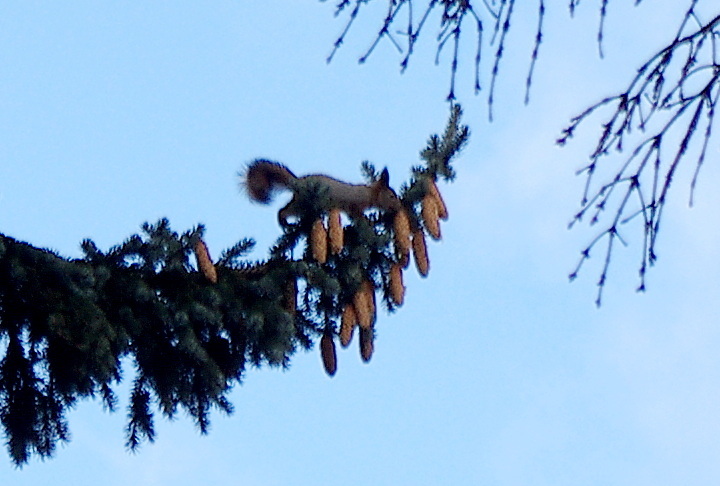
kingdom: Animalia
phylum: Chordata
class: Mammalia
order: Rodentia
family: Sciuridae
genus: Sciurus
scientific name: Sciurus vulgaris
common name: Eurasian red squirrel
